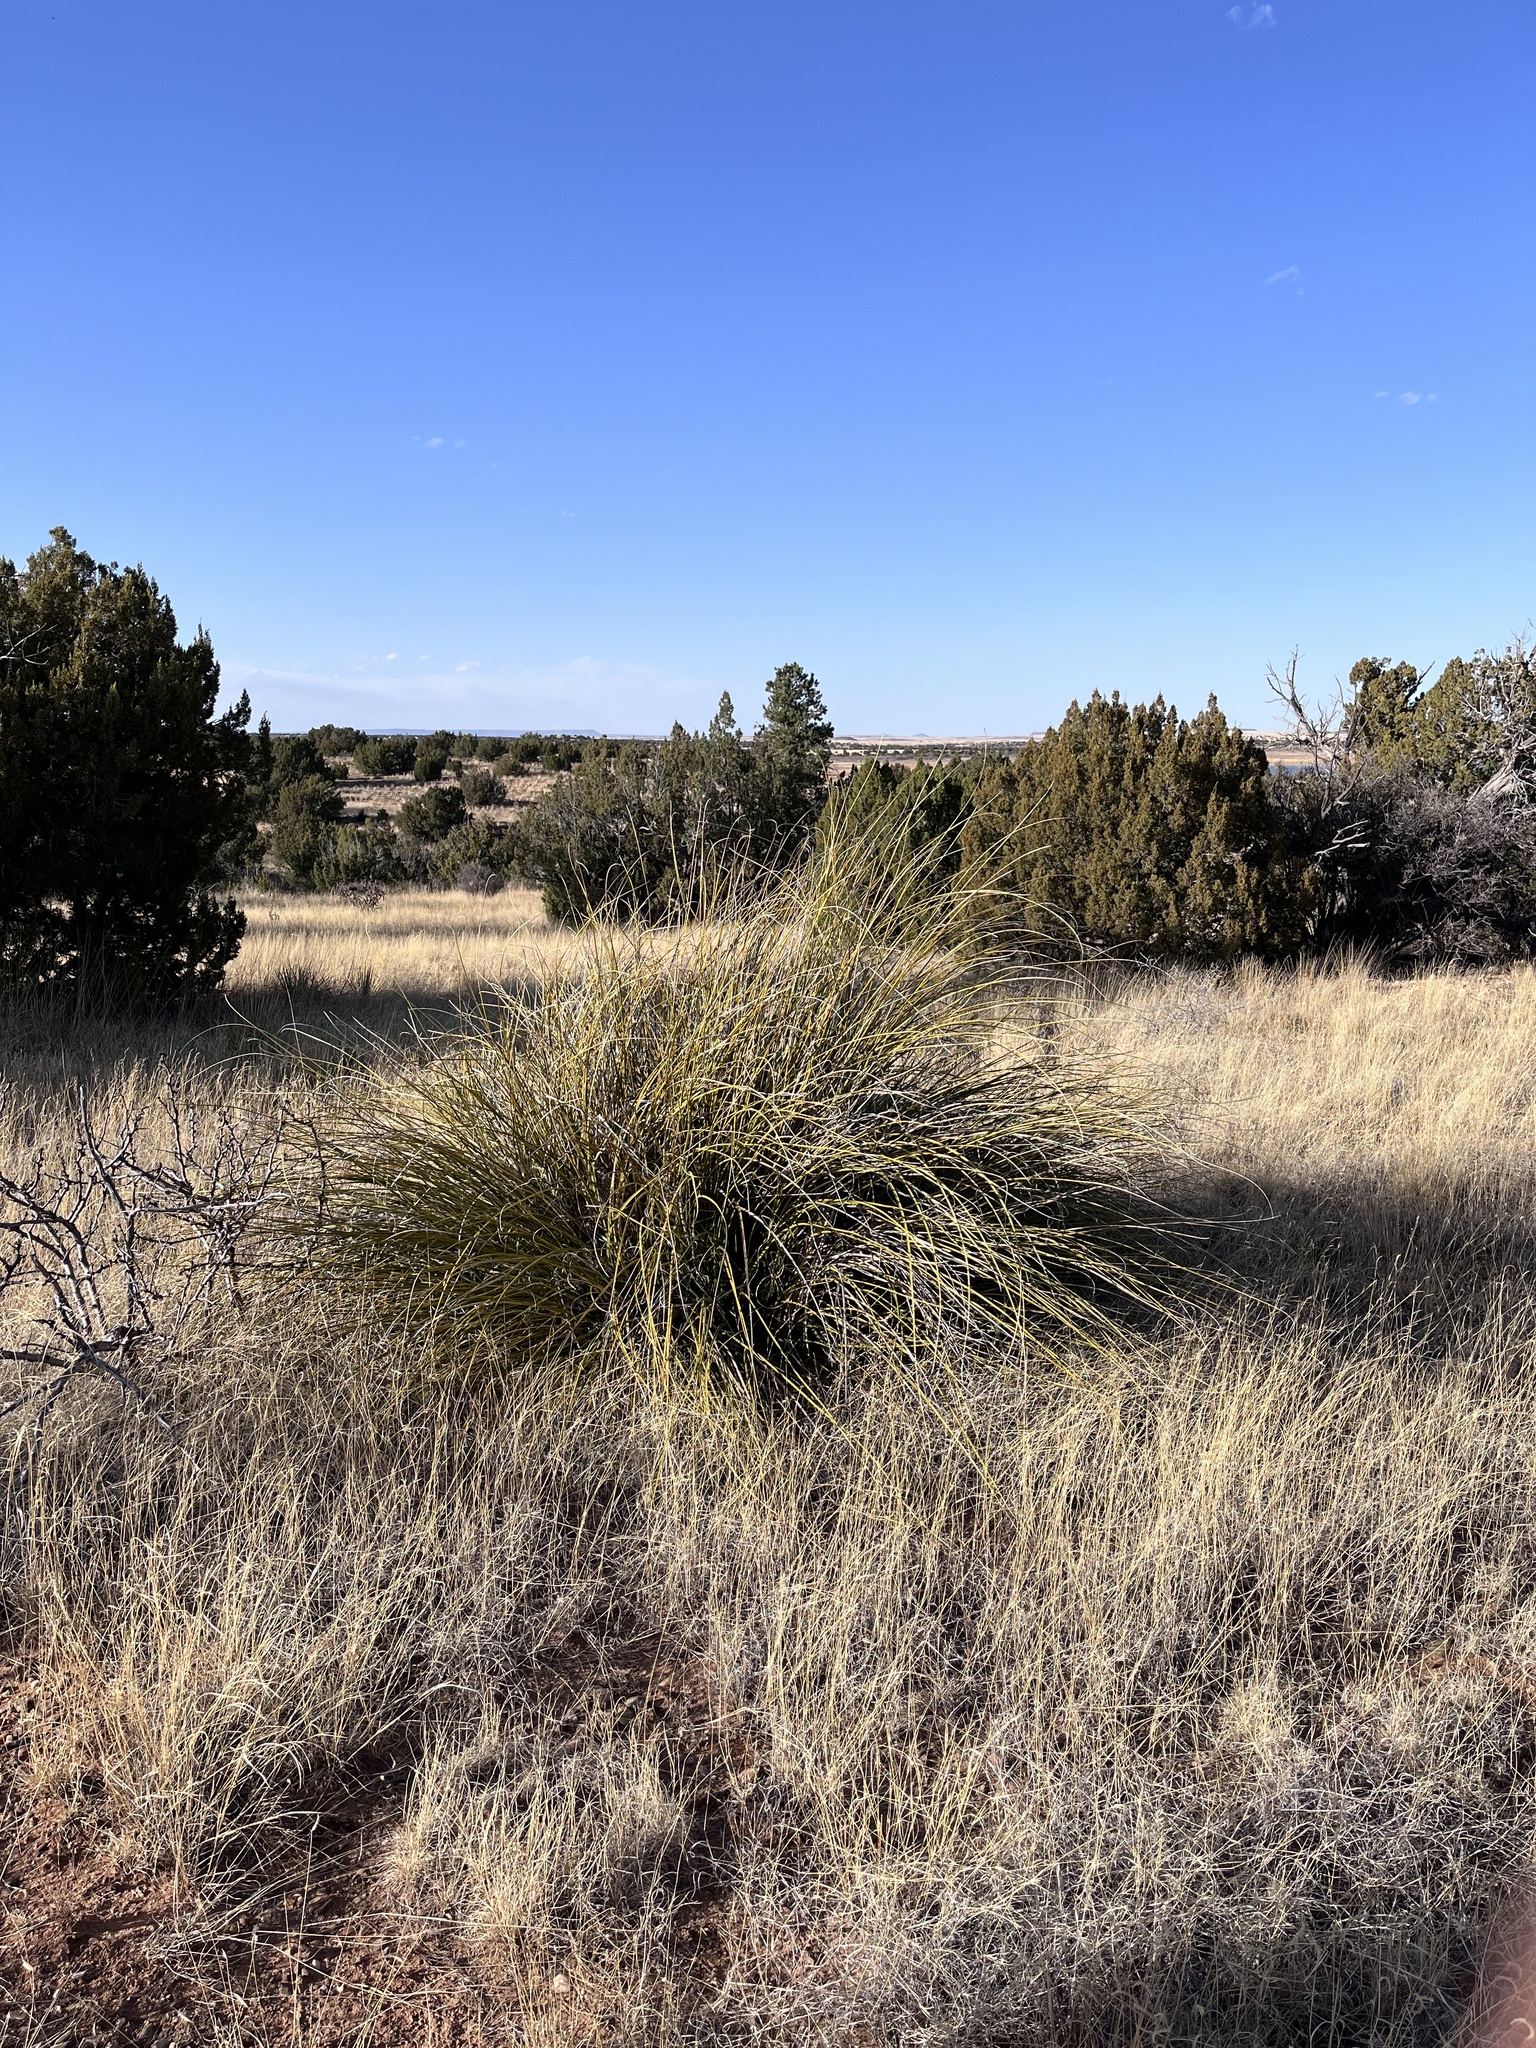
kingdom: Plantae
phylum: Tracheophyta
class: Liliopsida
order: Asparagales
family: Asparagaceae
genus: Nolina
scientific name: Nolina greenei
